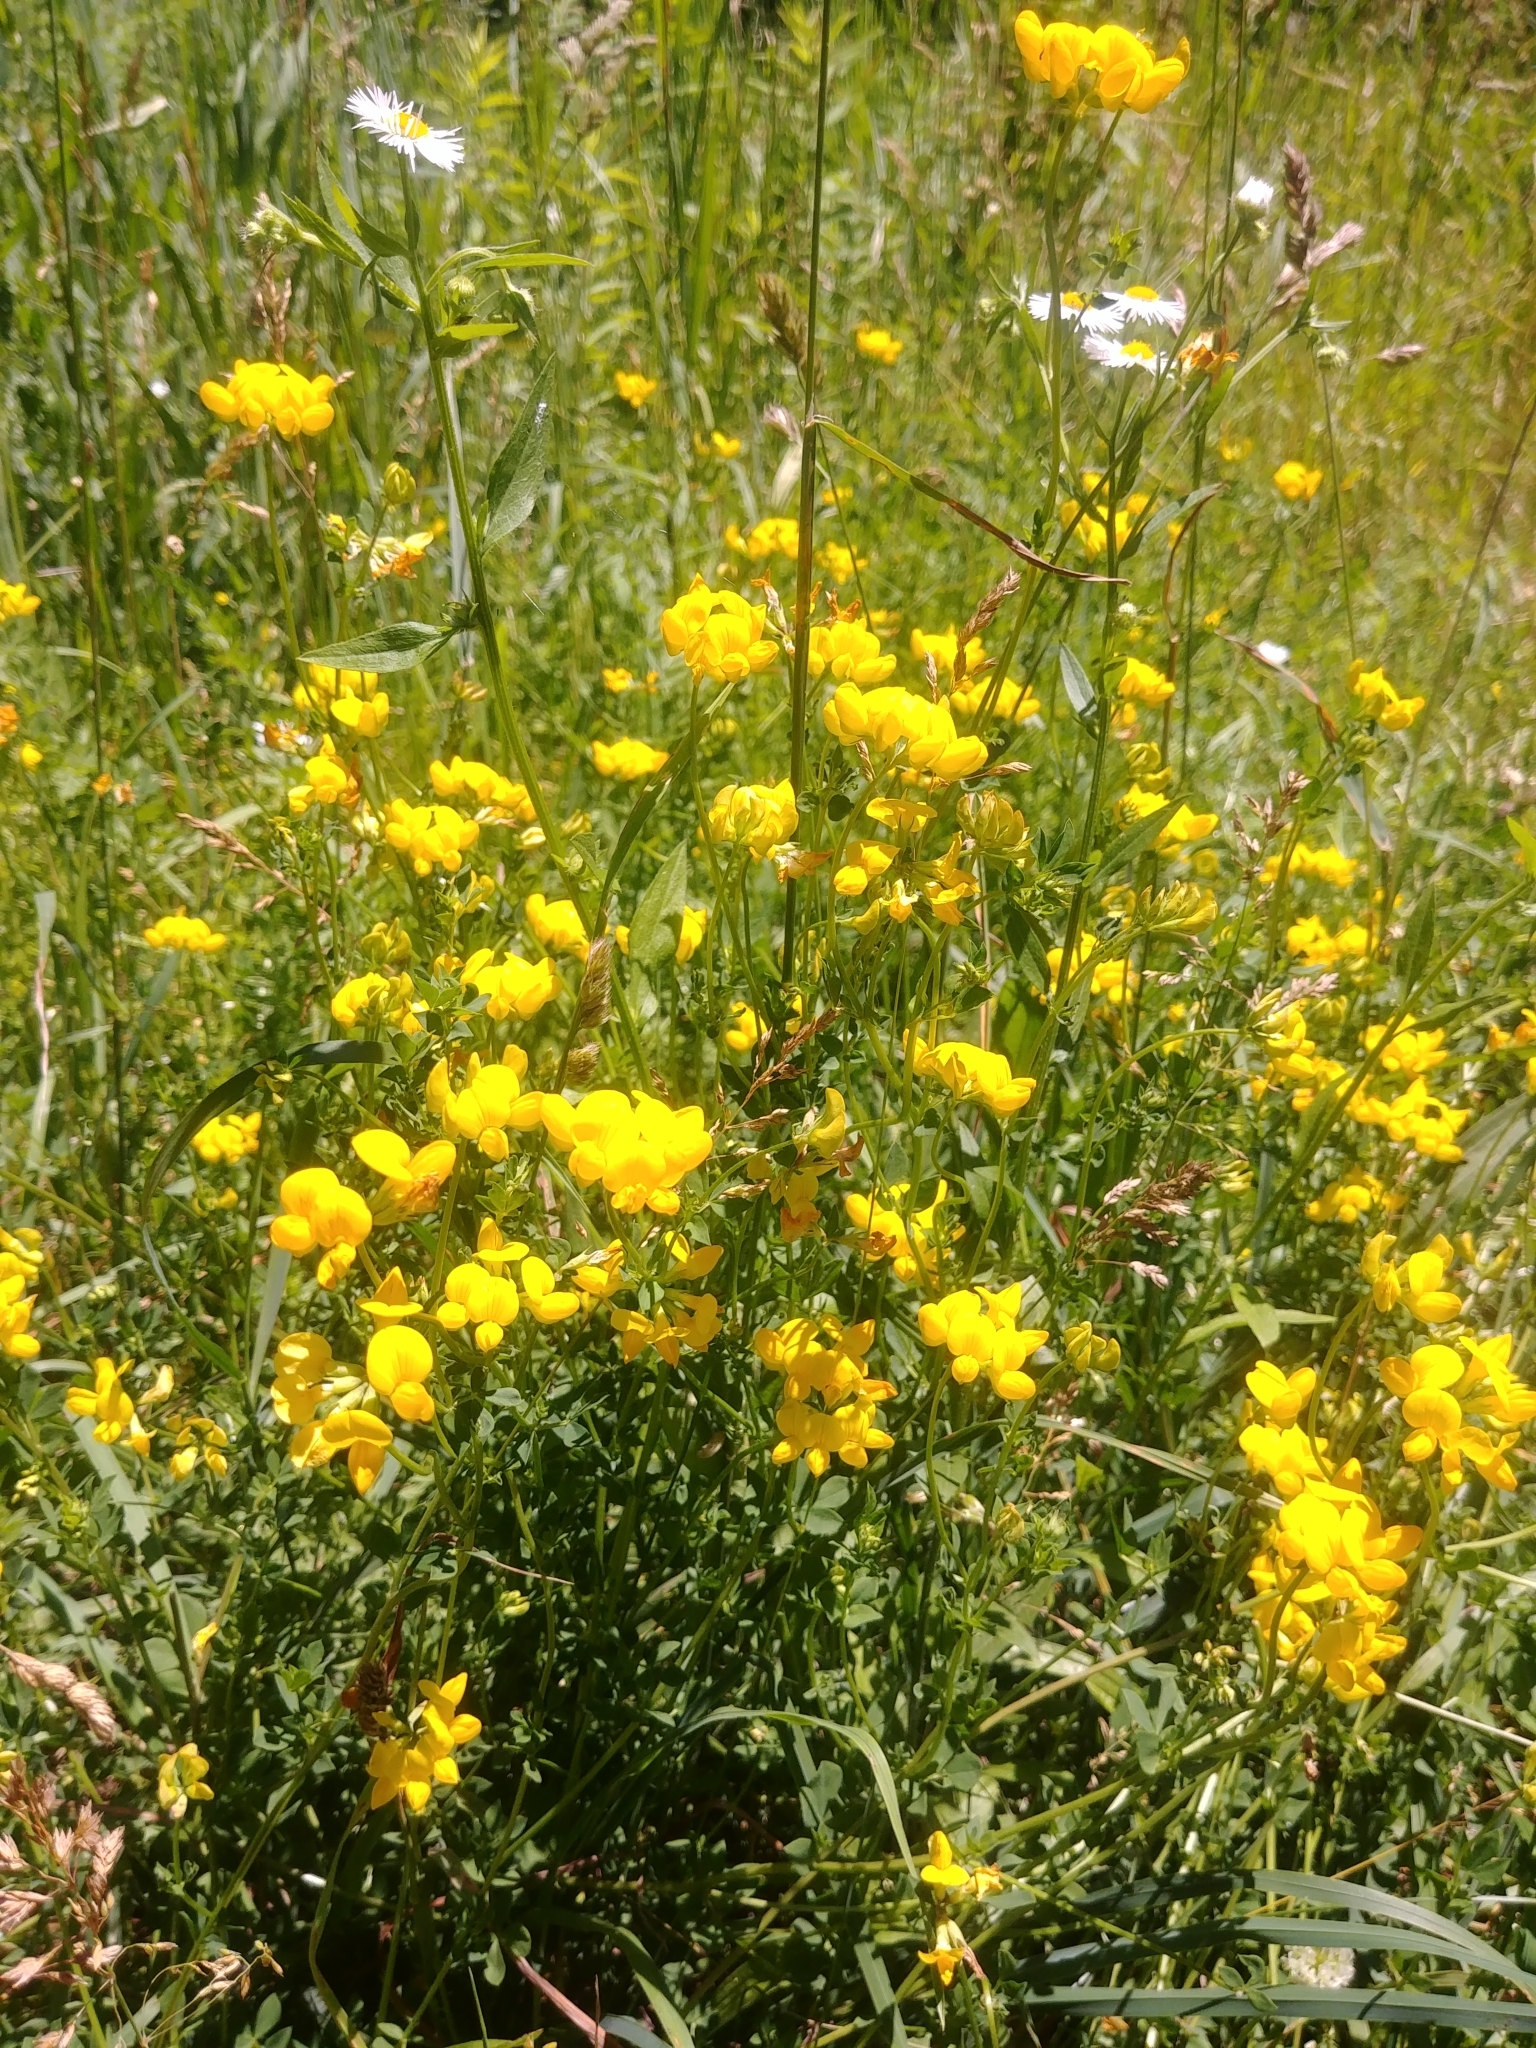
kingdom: Plantae
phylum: Tracheophyta
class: Magnoliopsida
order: Fabales
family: Fabaceae
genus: Lotus
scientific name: Lotus corniculatus
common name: Common bird's-foot-trefoil
